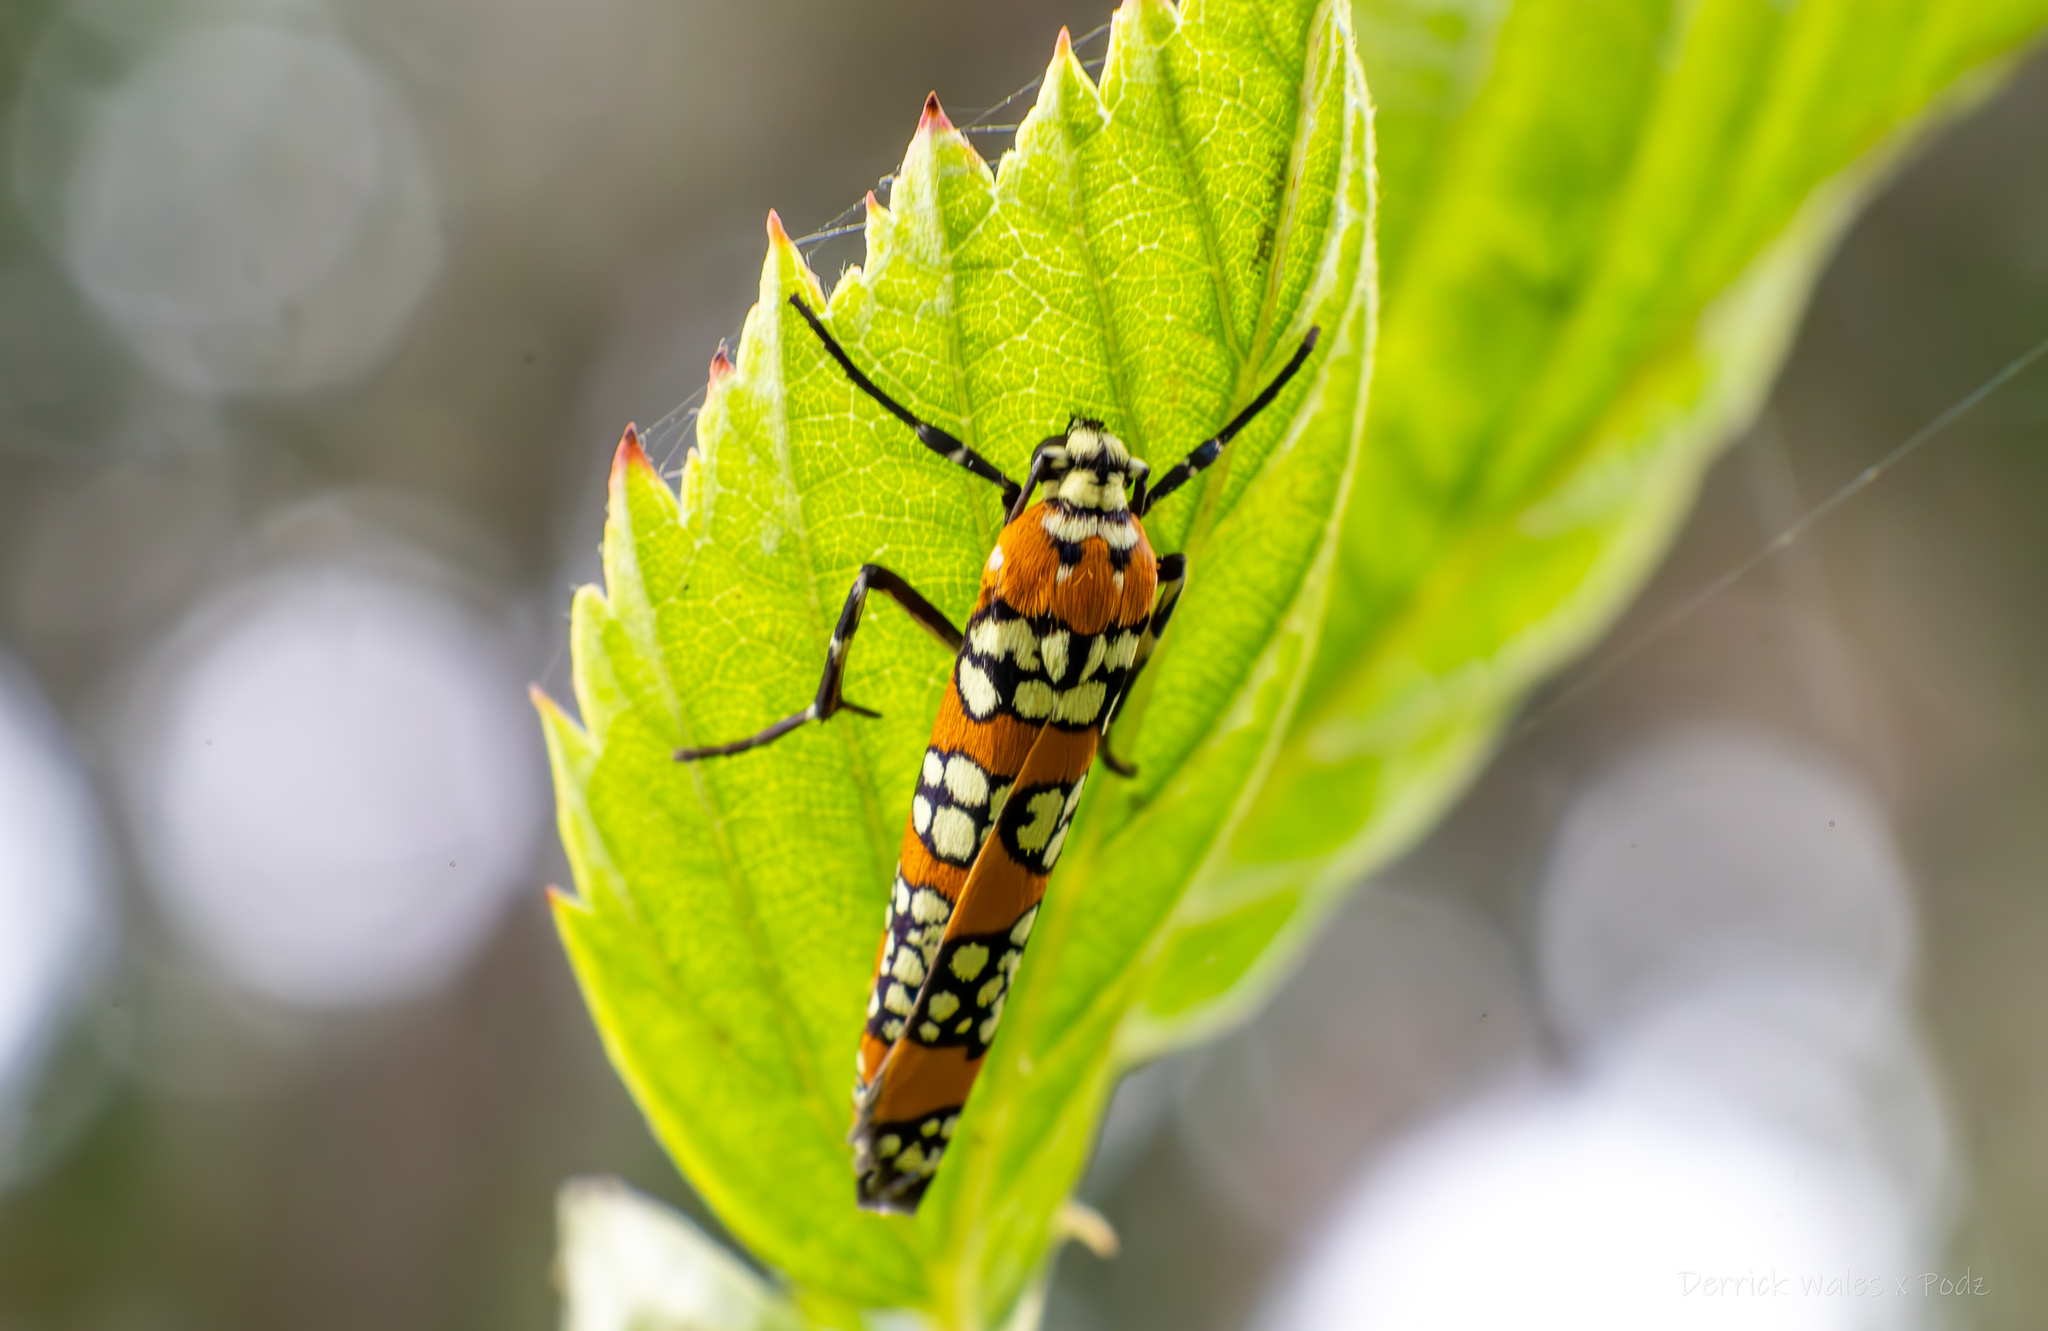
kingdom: Animalia
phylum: Arthropoda
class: Insecta
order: Lepidoptera
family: Attevidae
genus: Atteva
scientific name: Atteva punctella
